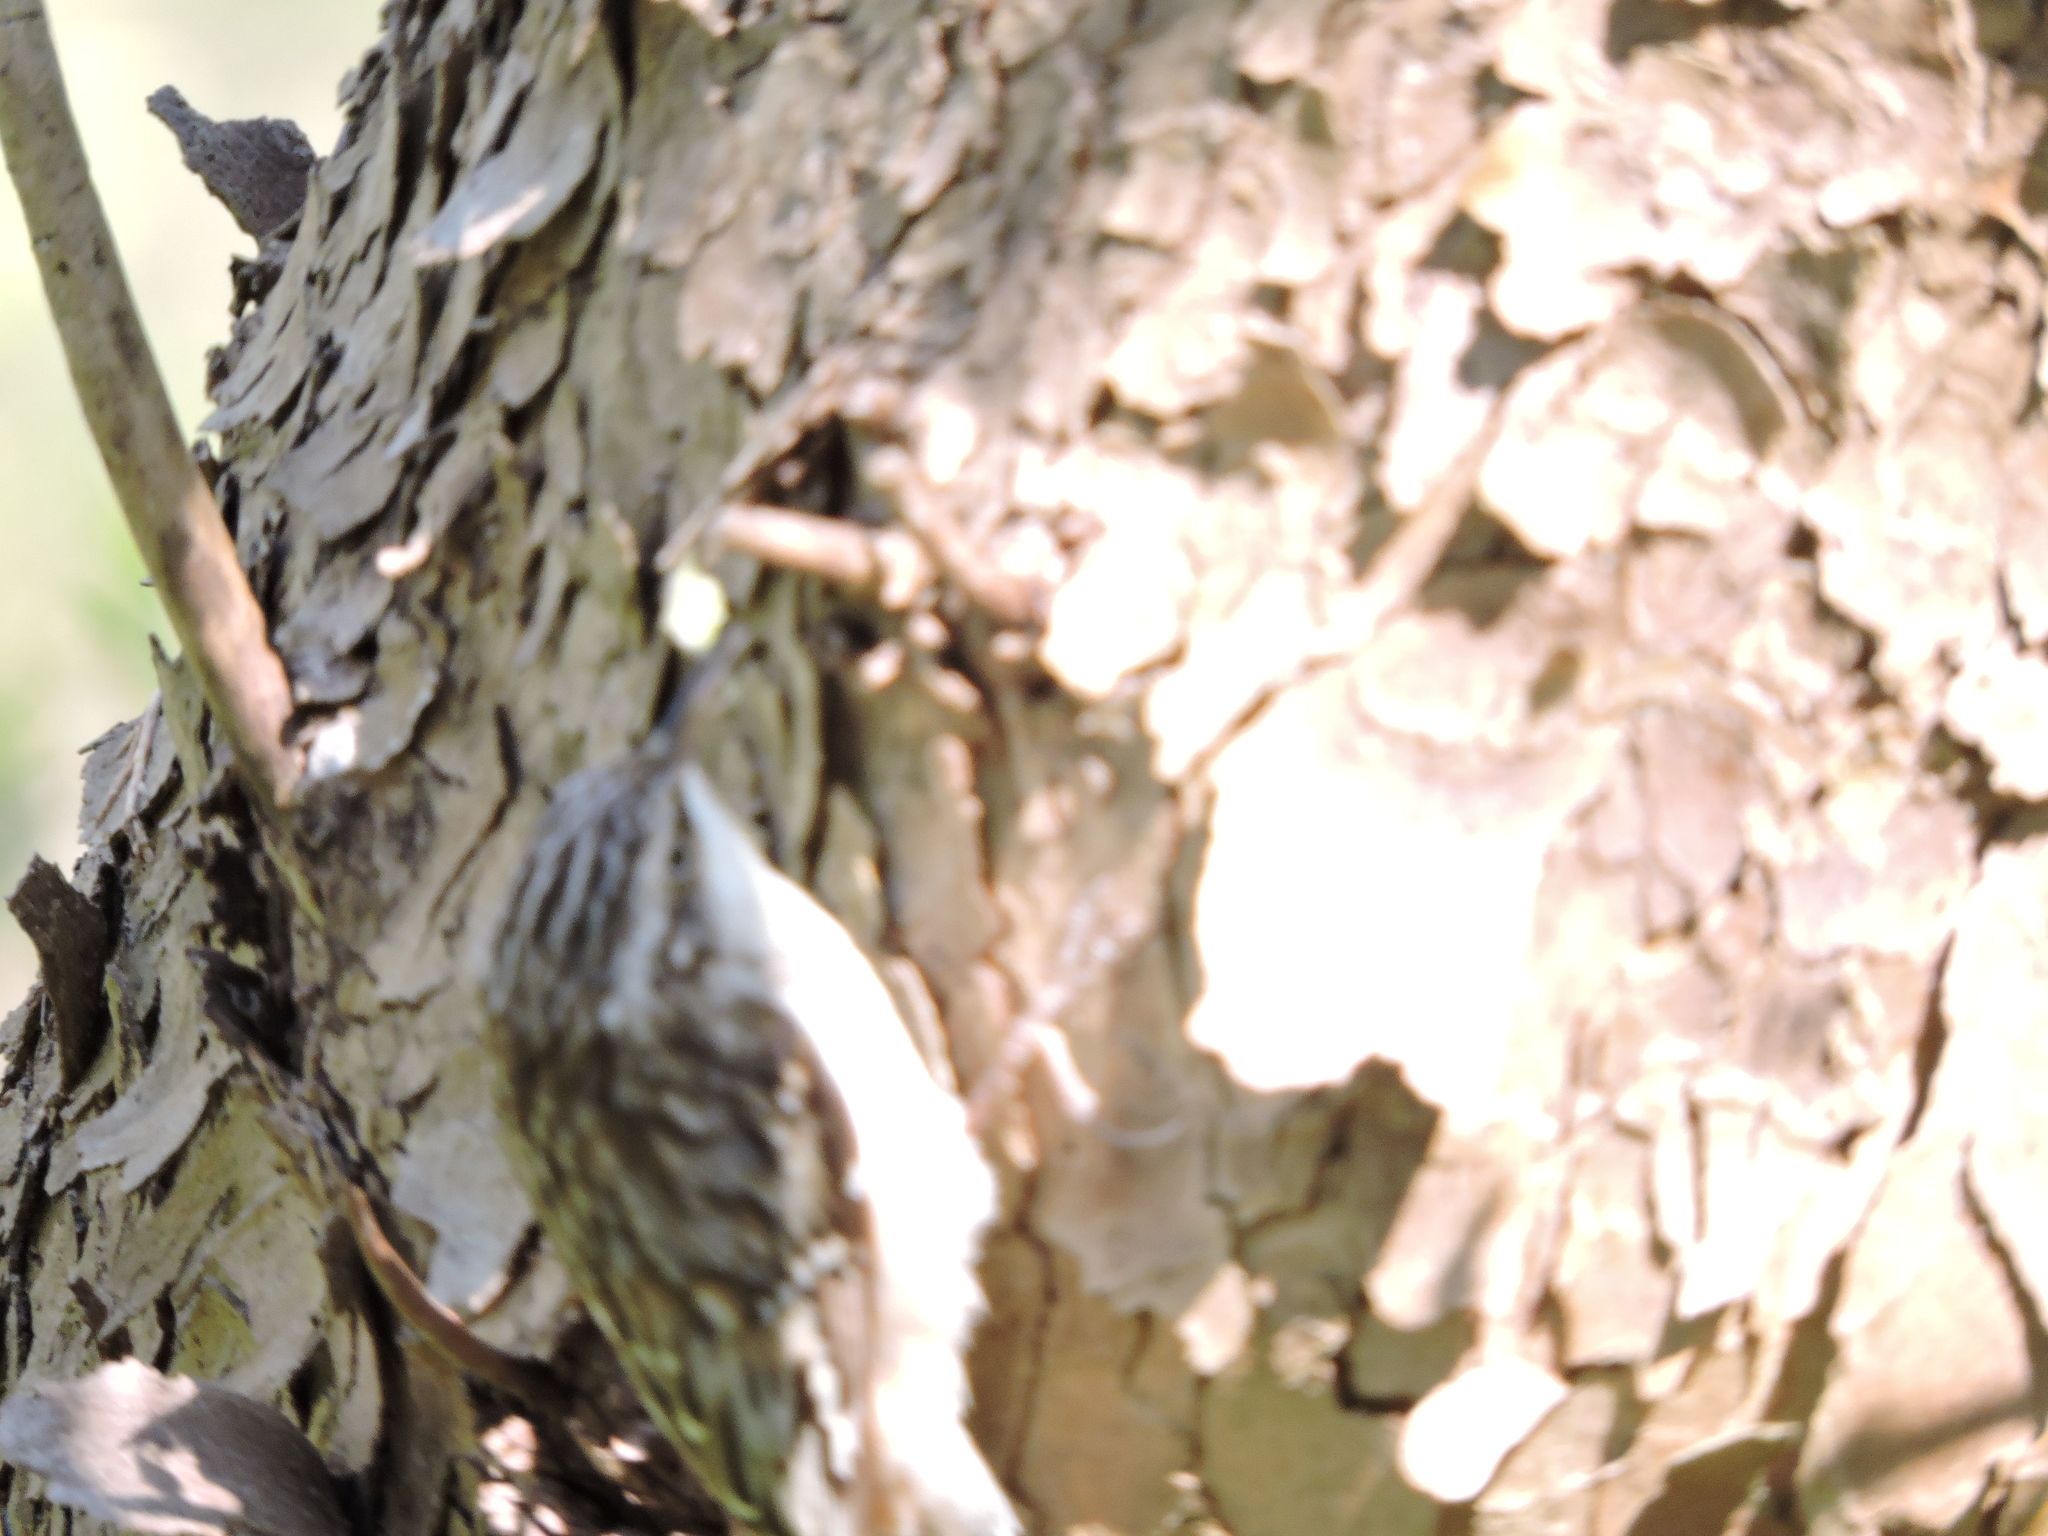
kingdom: Animalia
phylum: Chordata
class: Aves
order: Passeriformes
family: Certhiidae
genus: Certhia
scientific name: Certhia americana
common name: Brown creeper
